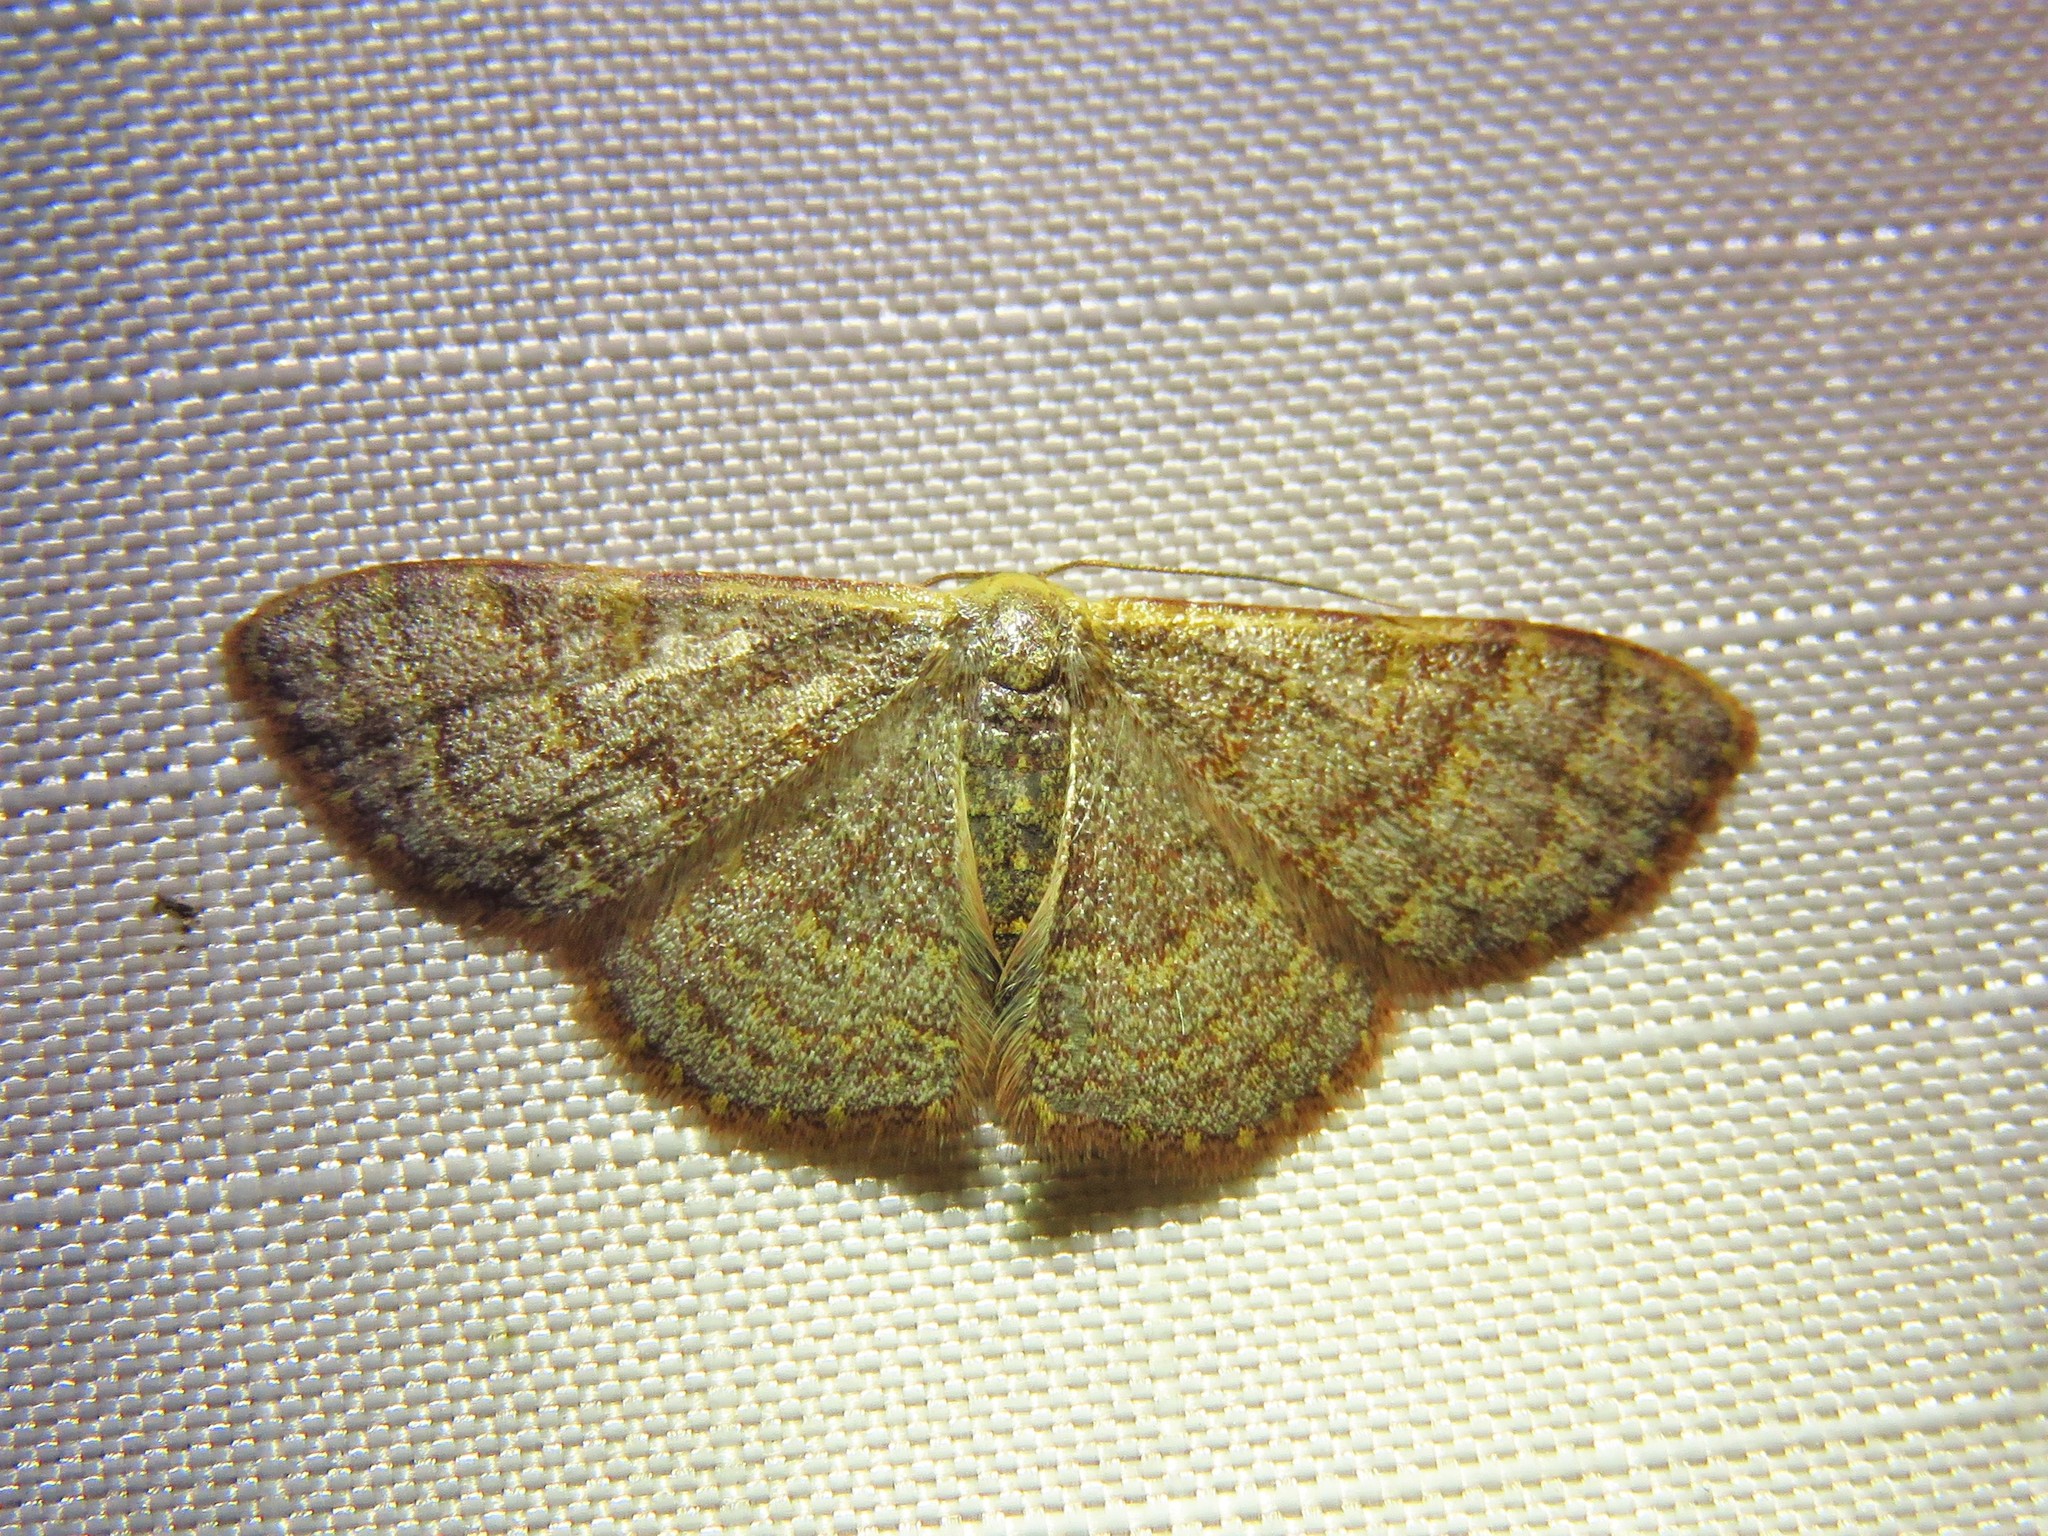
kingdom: Animalia
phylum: Arthropoda
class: Insecta
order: Lepidoptera
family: Geometridae
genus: Leptostales
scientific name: Leptostales pannaria
